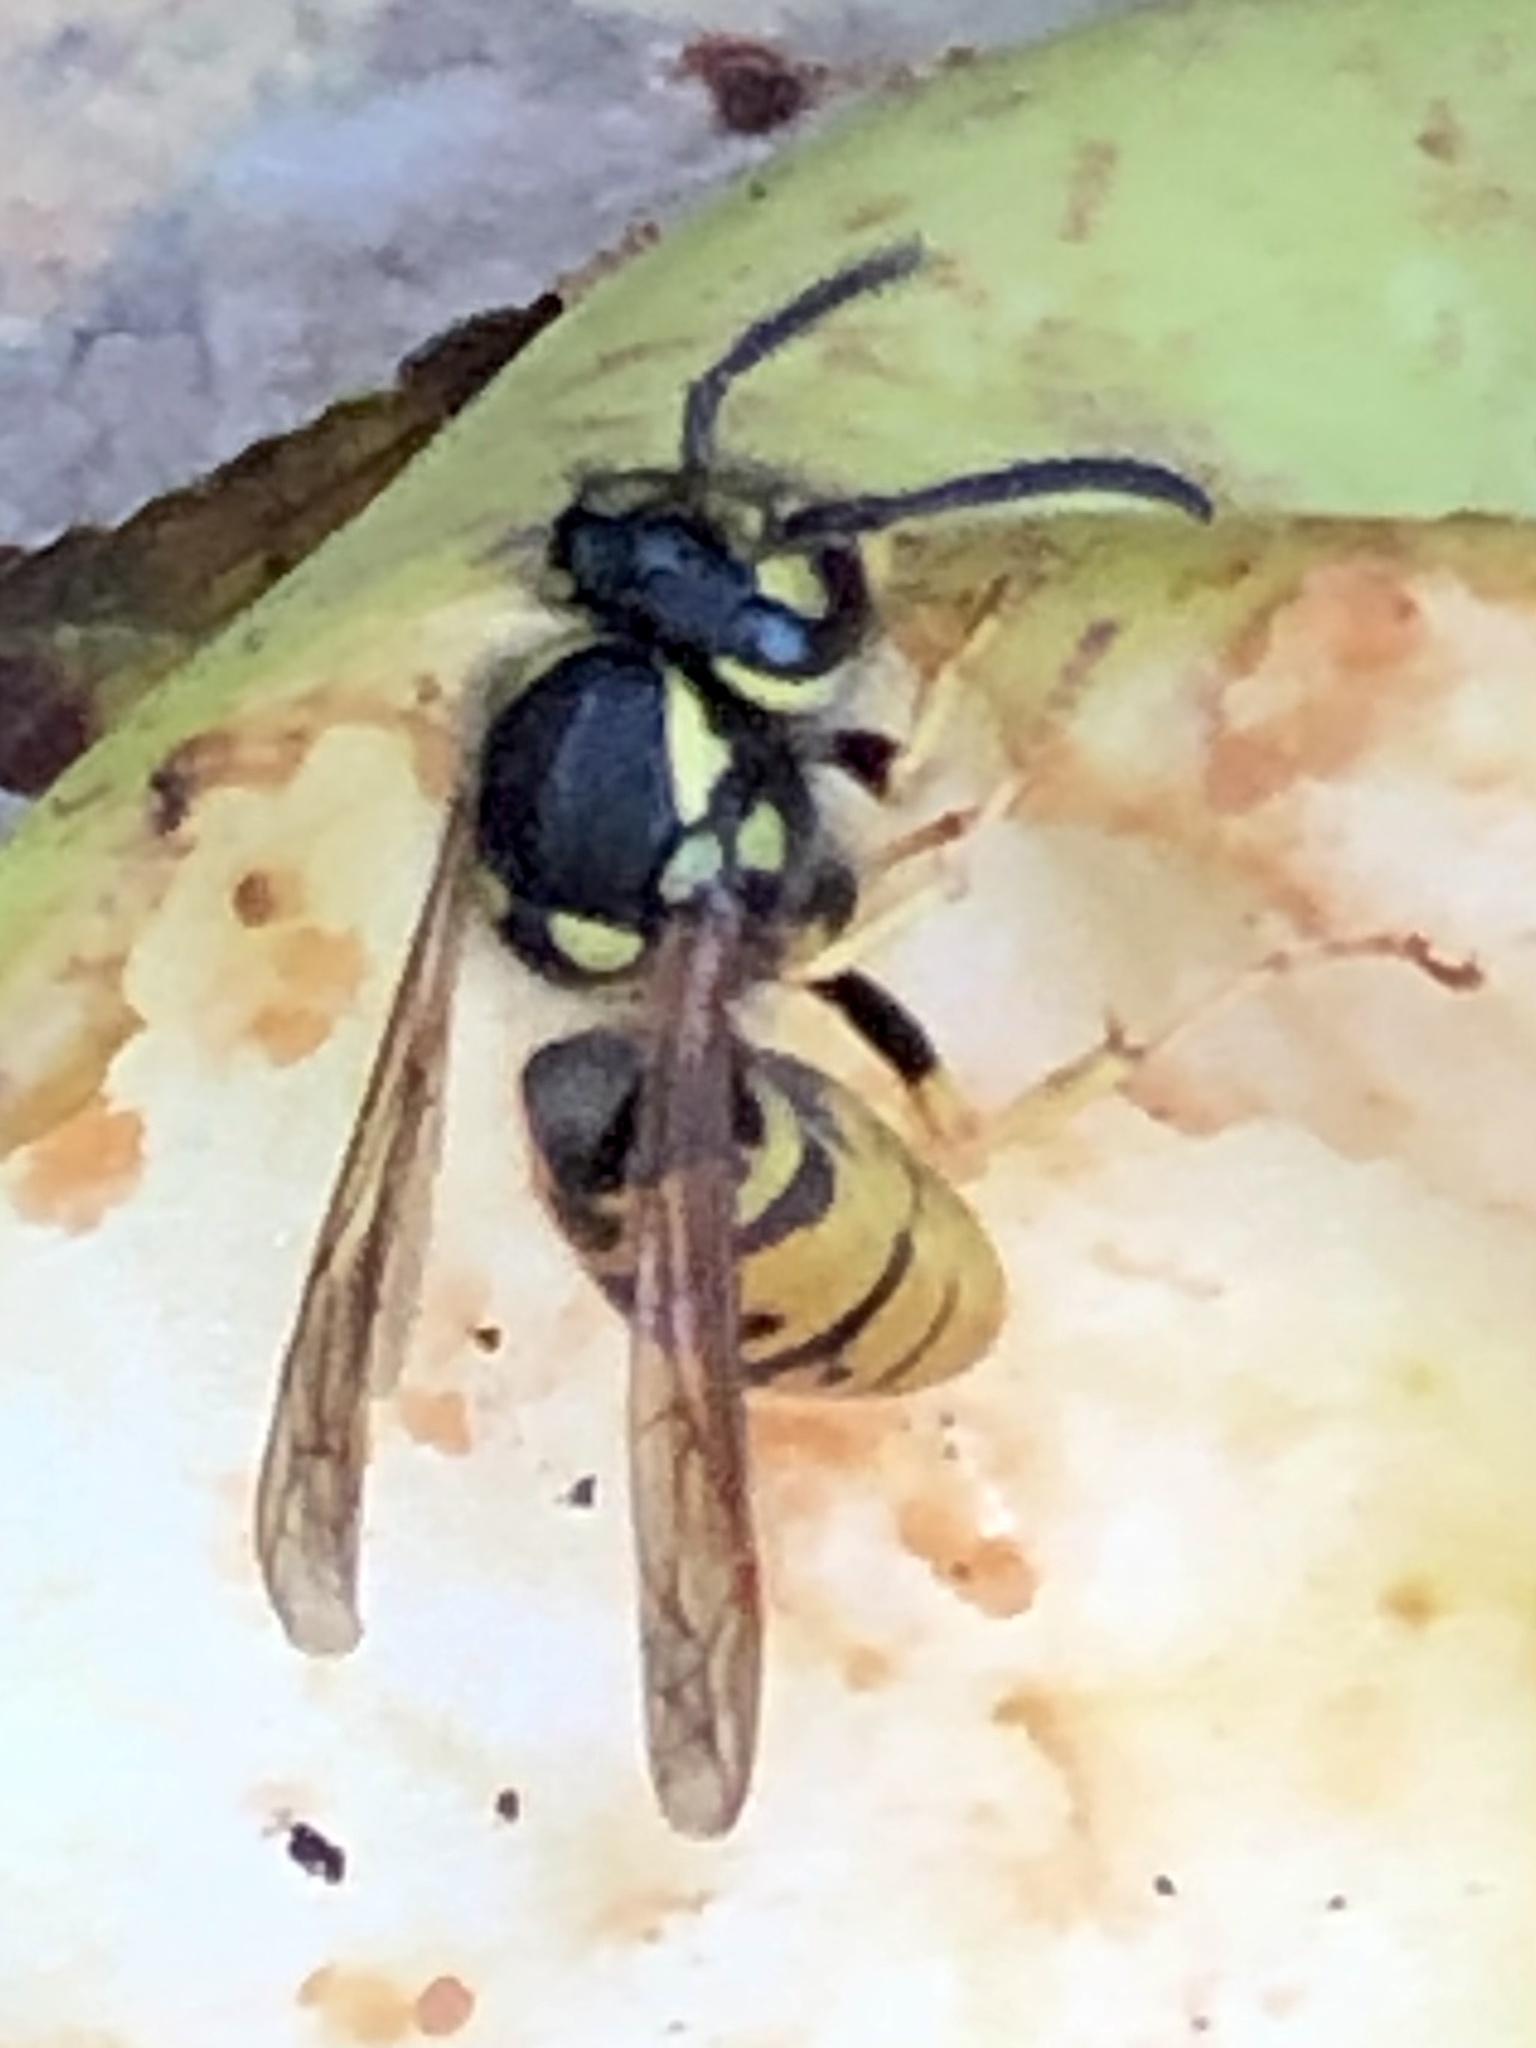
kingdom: Animalia
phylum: Arthropoda
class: Insecta
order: Hymenoptera
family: Vespidae
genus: Vespula
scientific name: Vespula germanica
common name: German wasp
